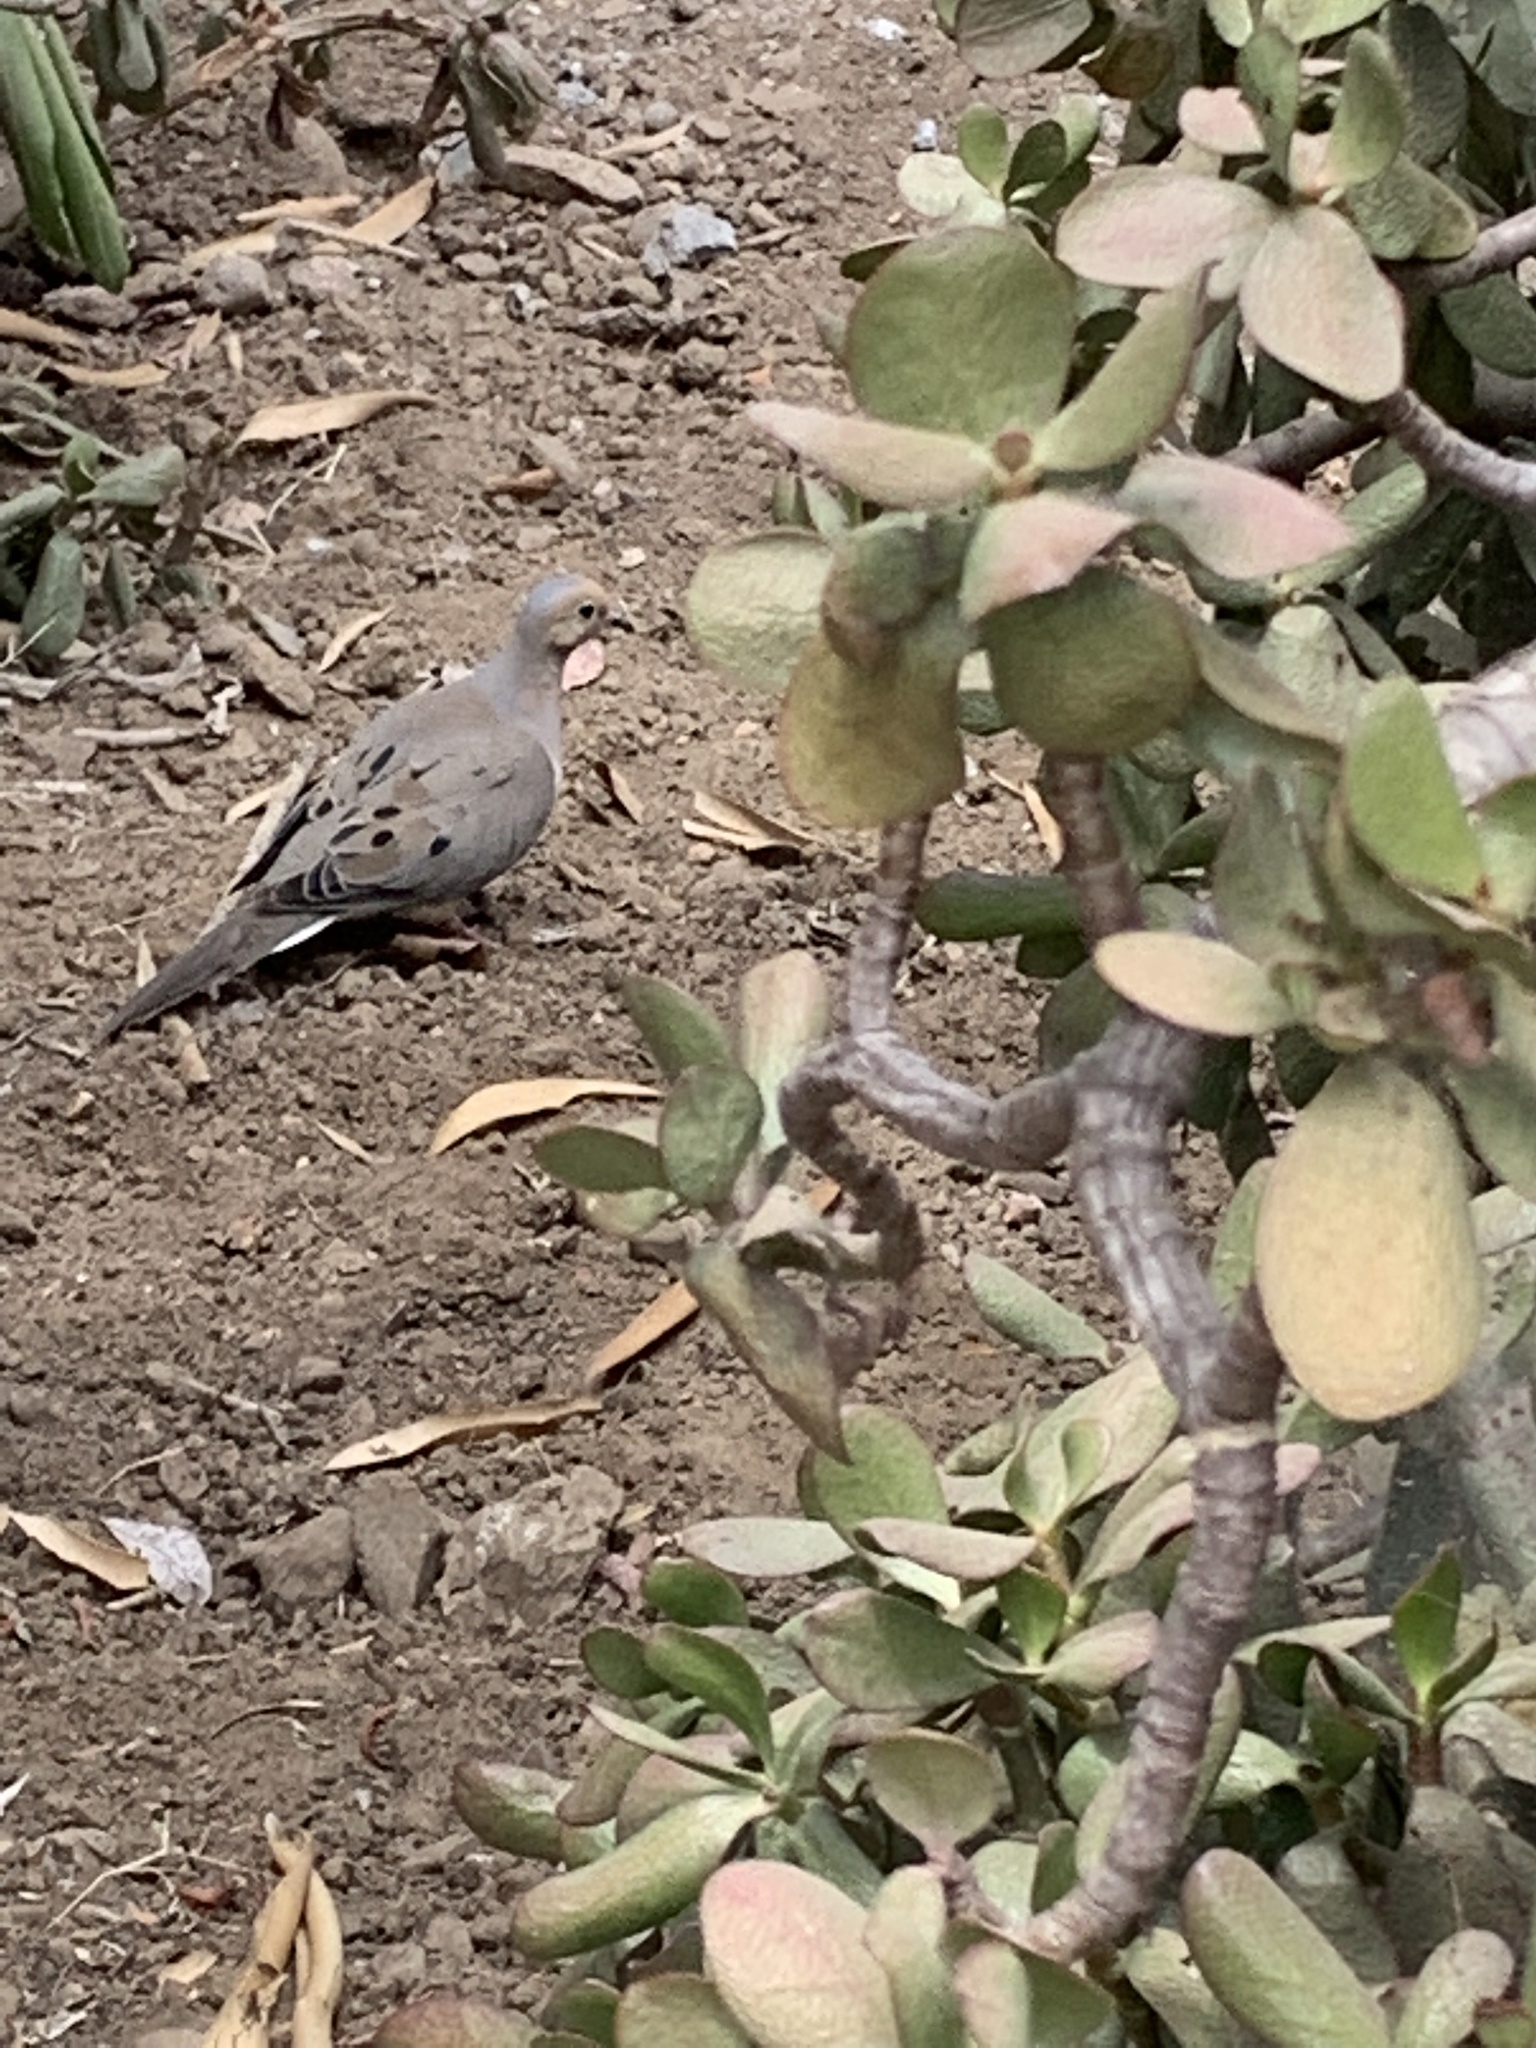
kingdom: Animalia
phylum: Chordata
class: Aves
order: Columbiformes
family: Columbidae
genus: Zenaida
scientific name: Zenaida macroura
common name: Mourning dove
